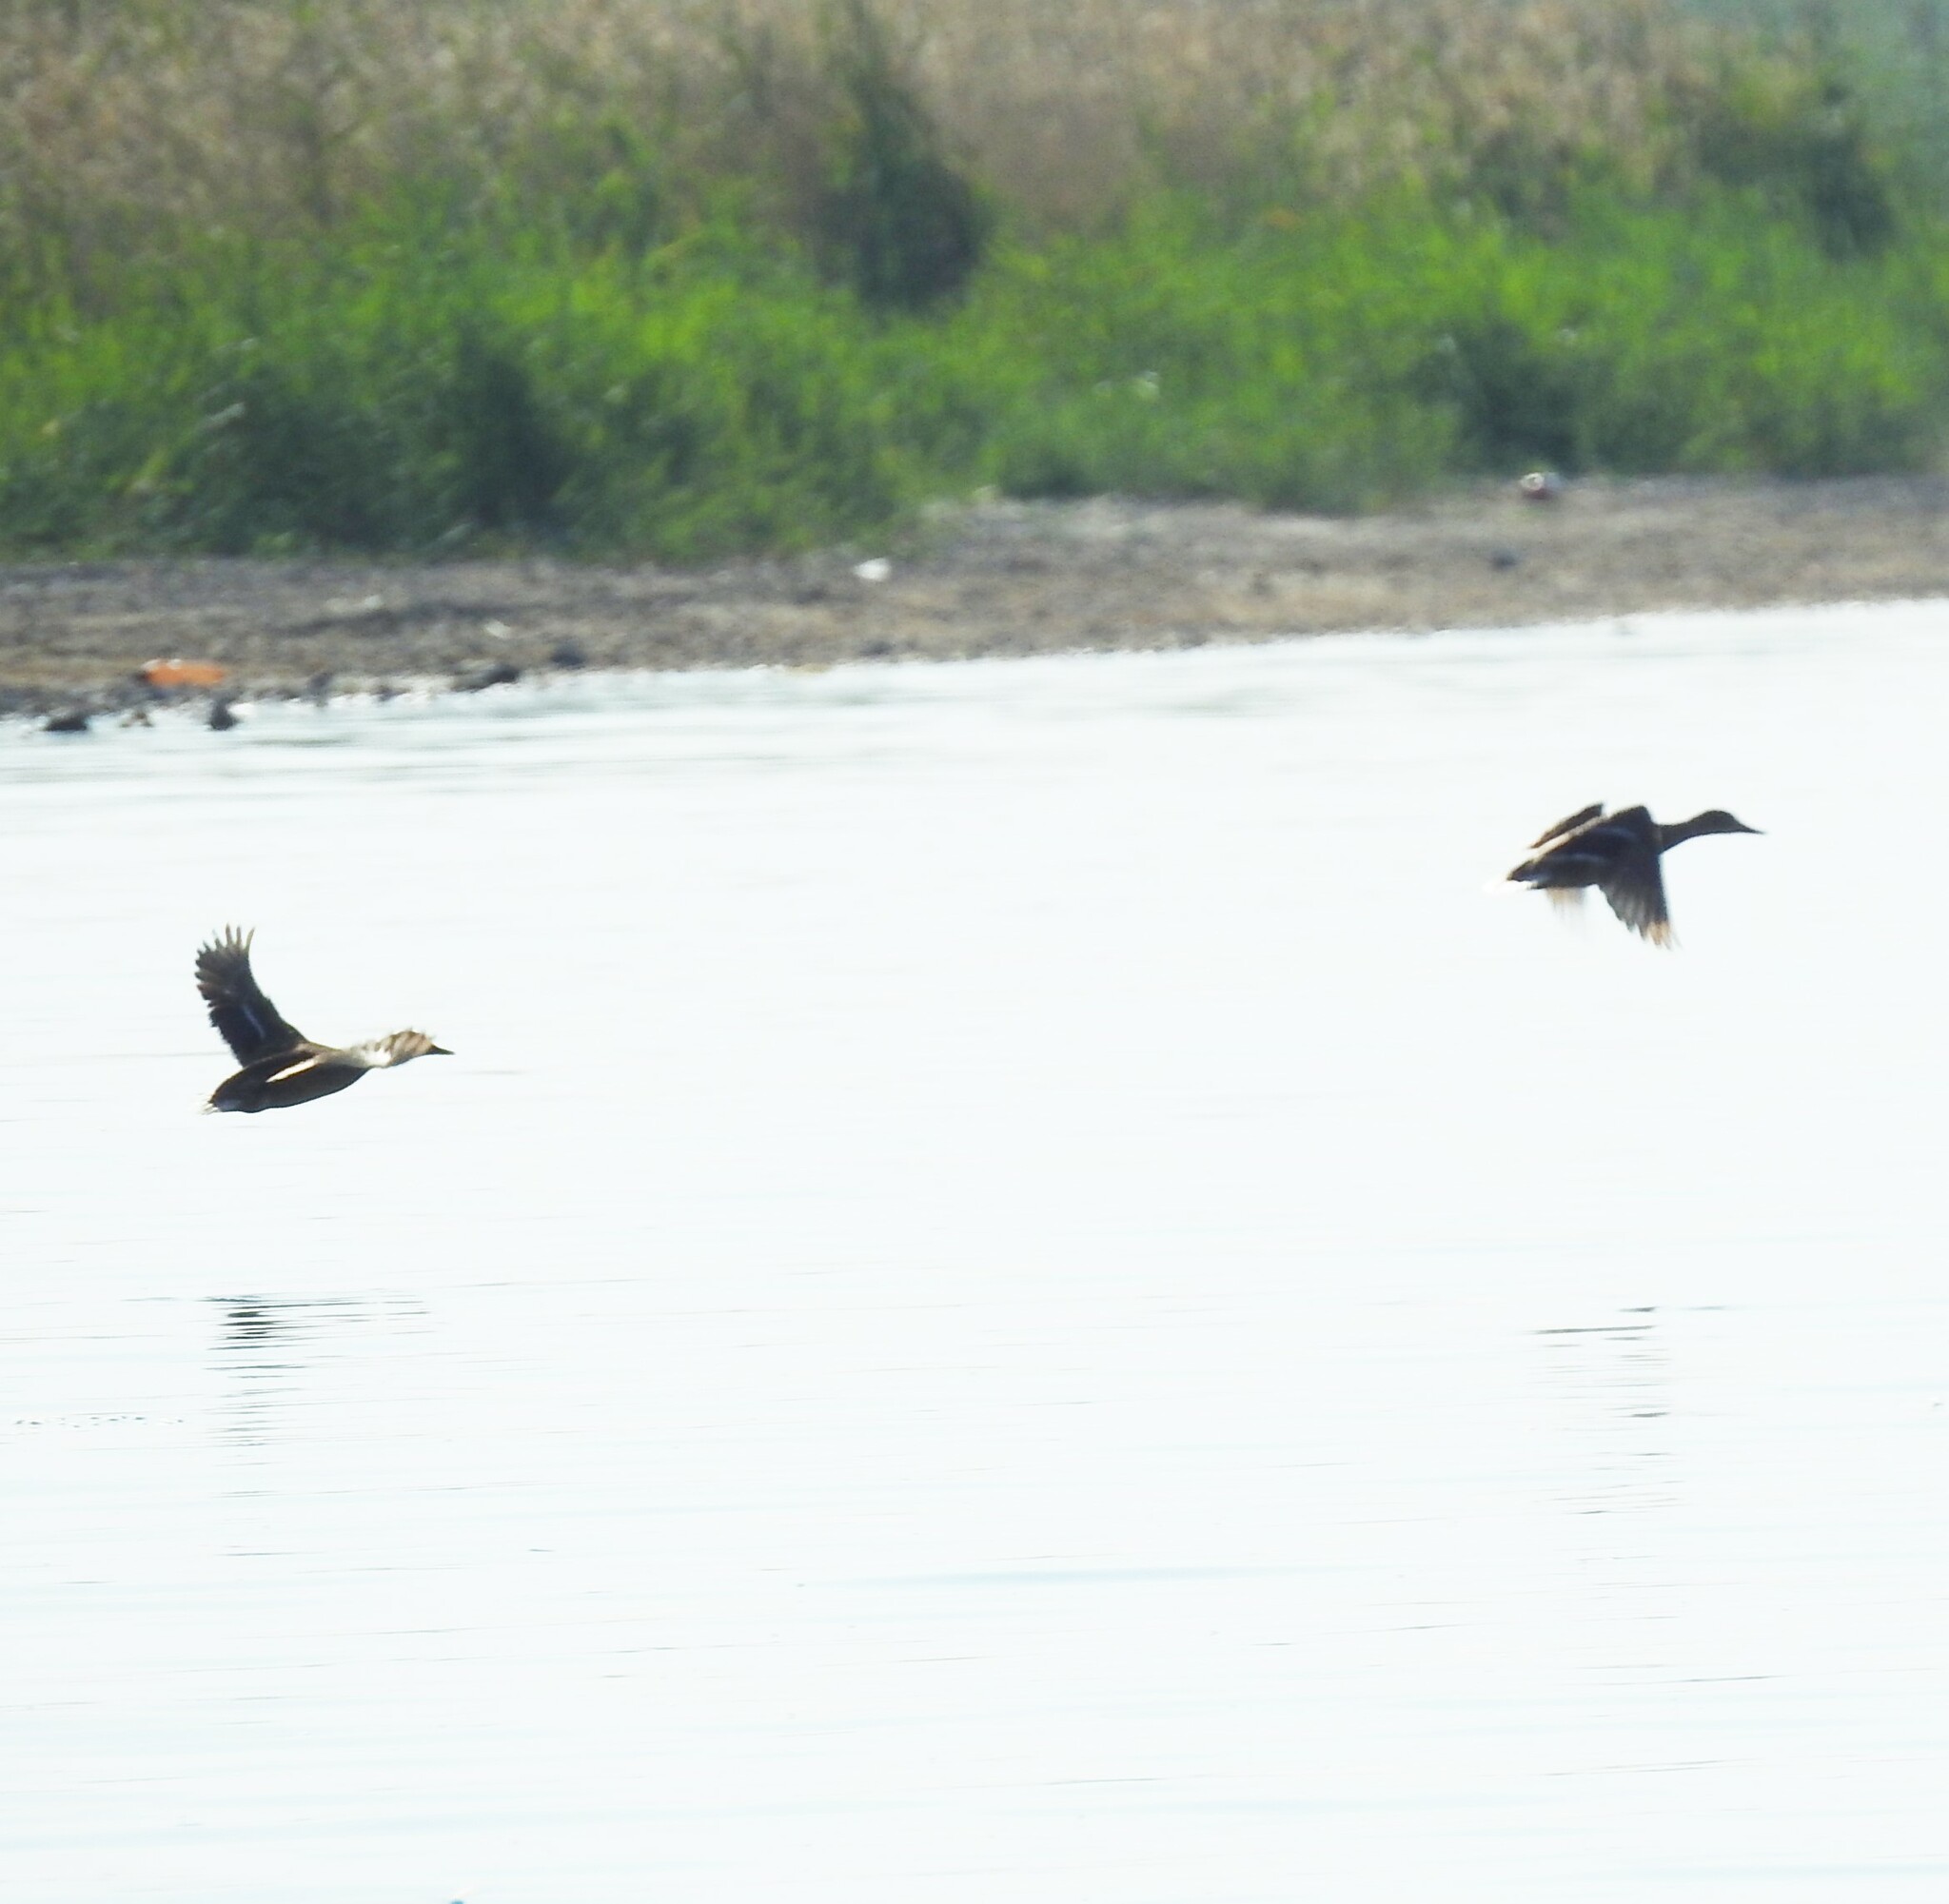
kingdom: Animalia
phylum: Chordata
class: Aves
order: Anseriformes
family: Anatidae
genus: Anas
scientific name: Anas platyrhynchos
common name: Mallard
